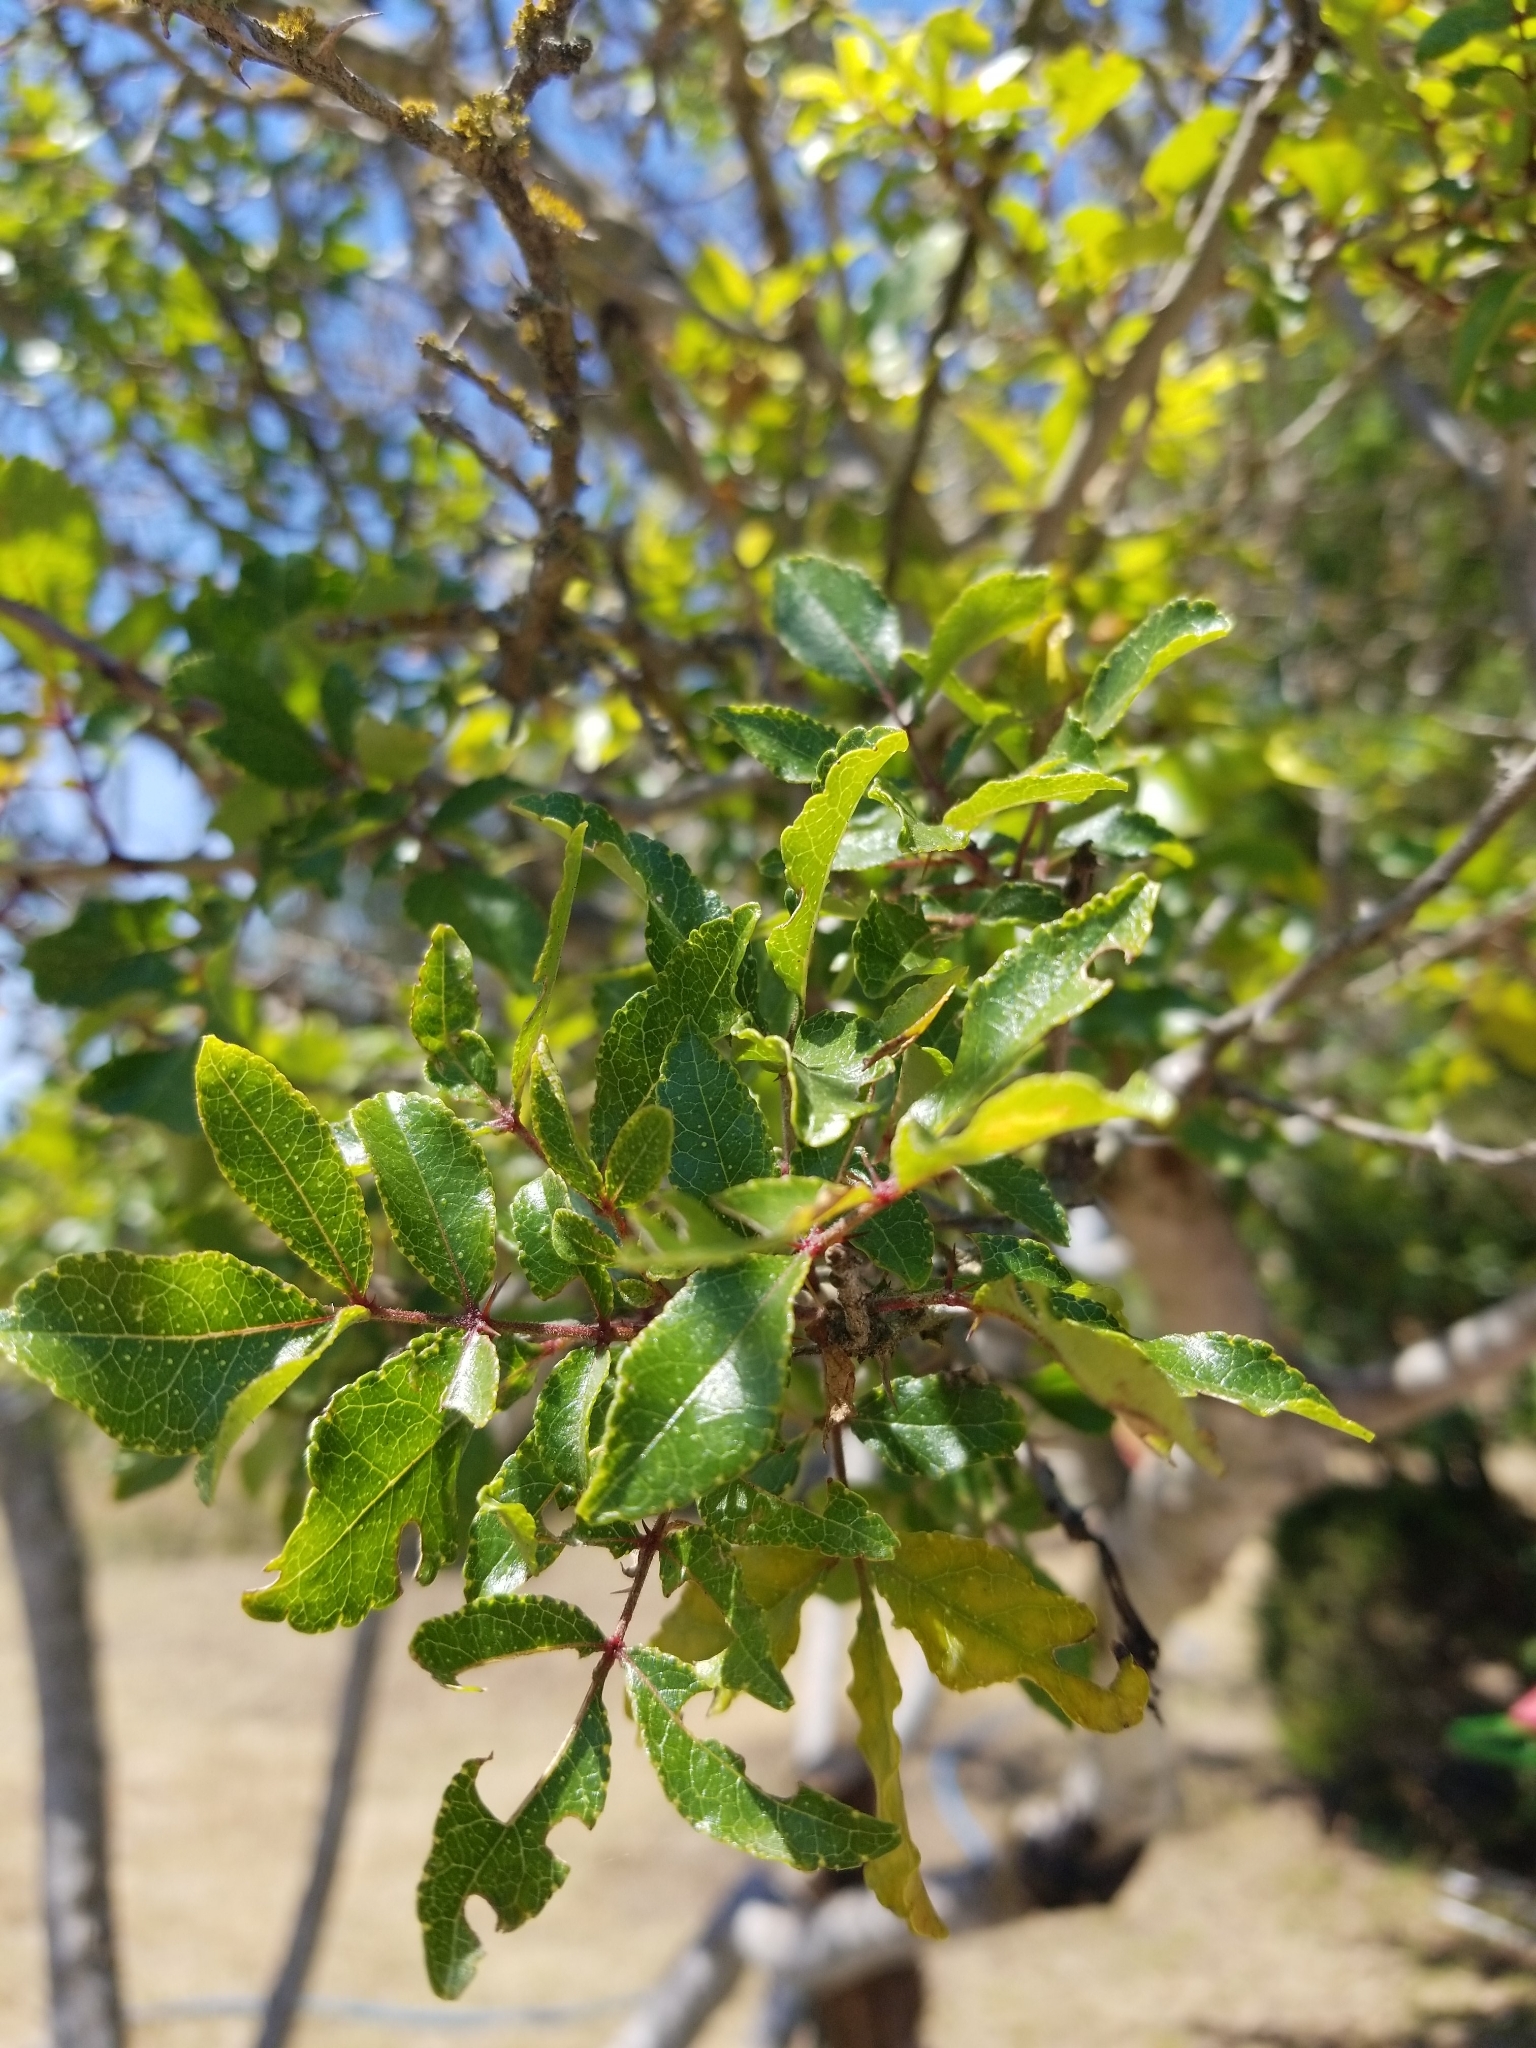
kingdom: Plantae
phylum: Tracheophyta
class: Magnoliopsida
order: Sapindales
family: Rutaceae
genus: Zanthoxylum
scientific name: Zanthoxylum clava-herculis
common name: Hercules'-club
